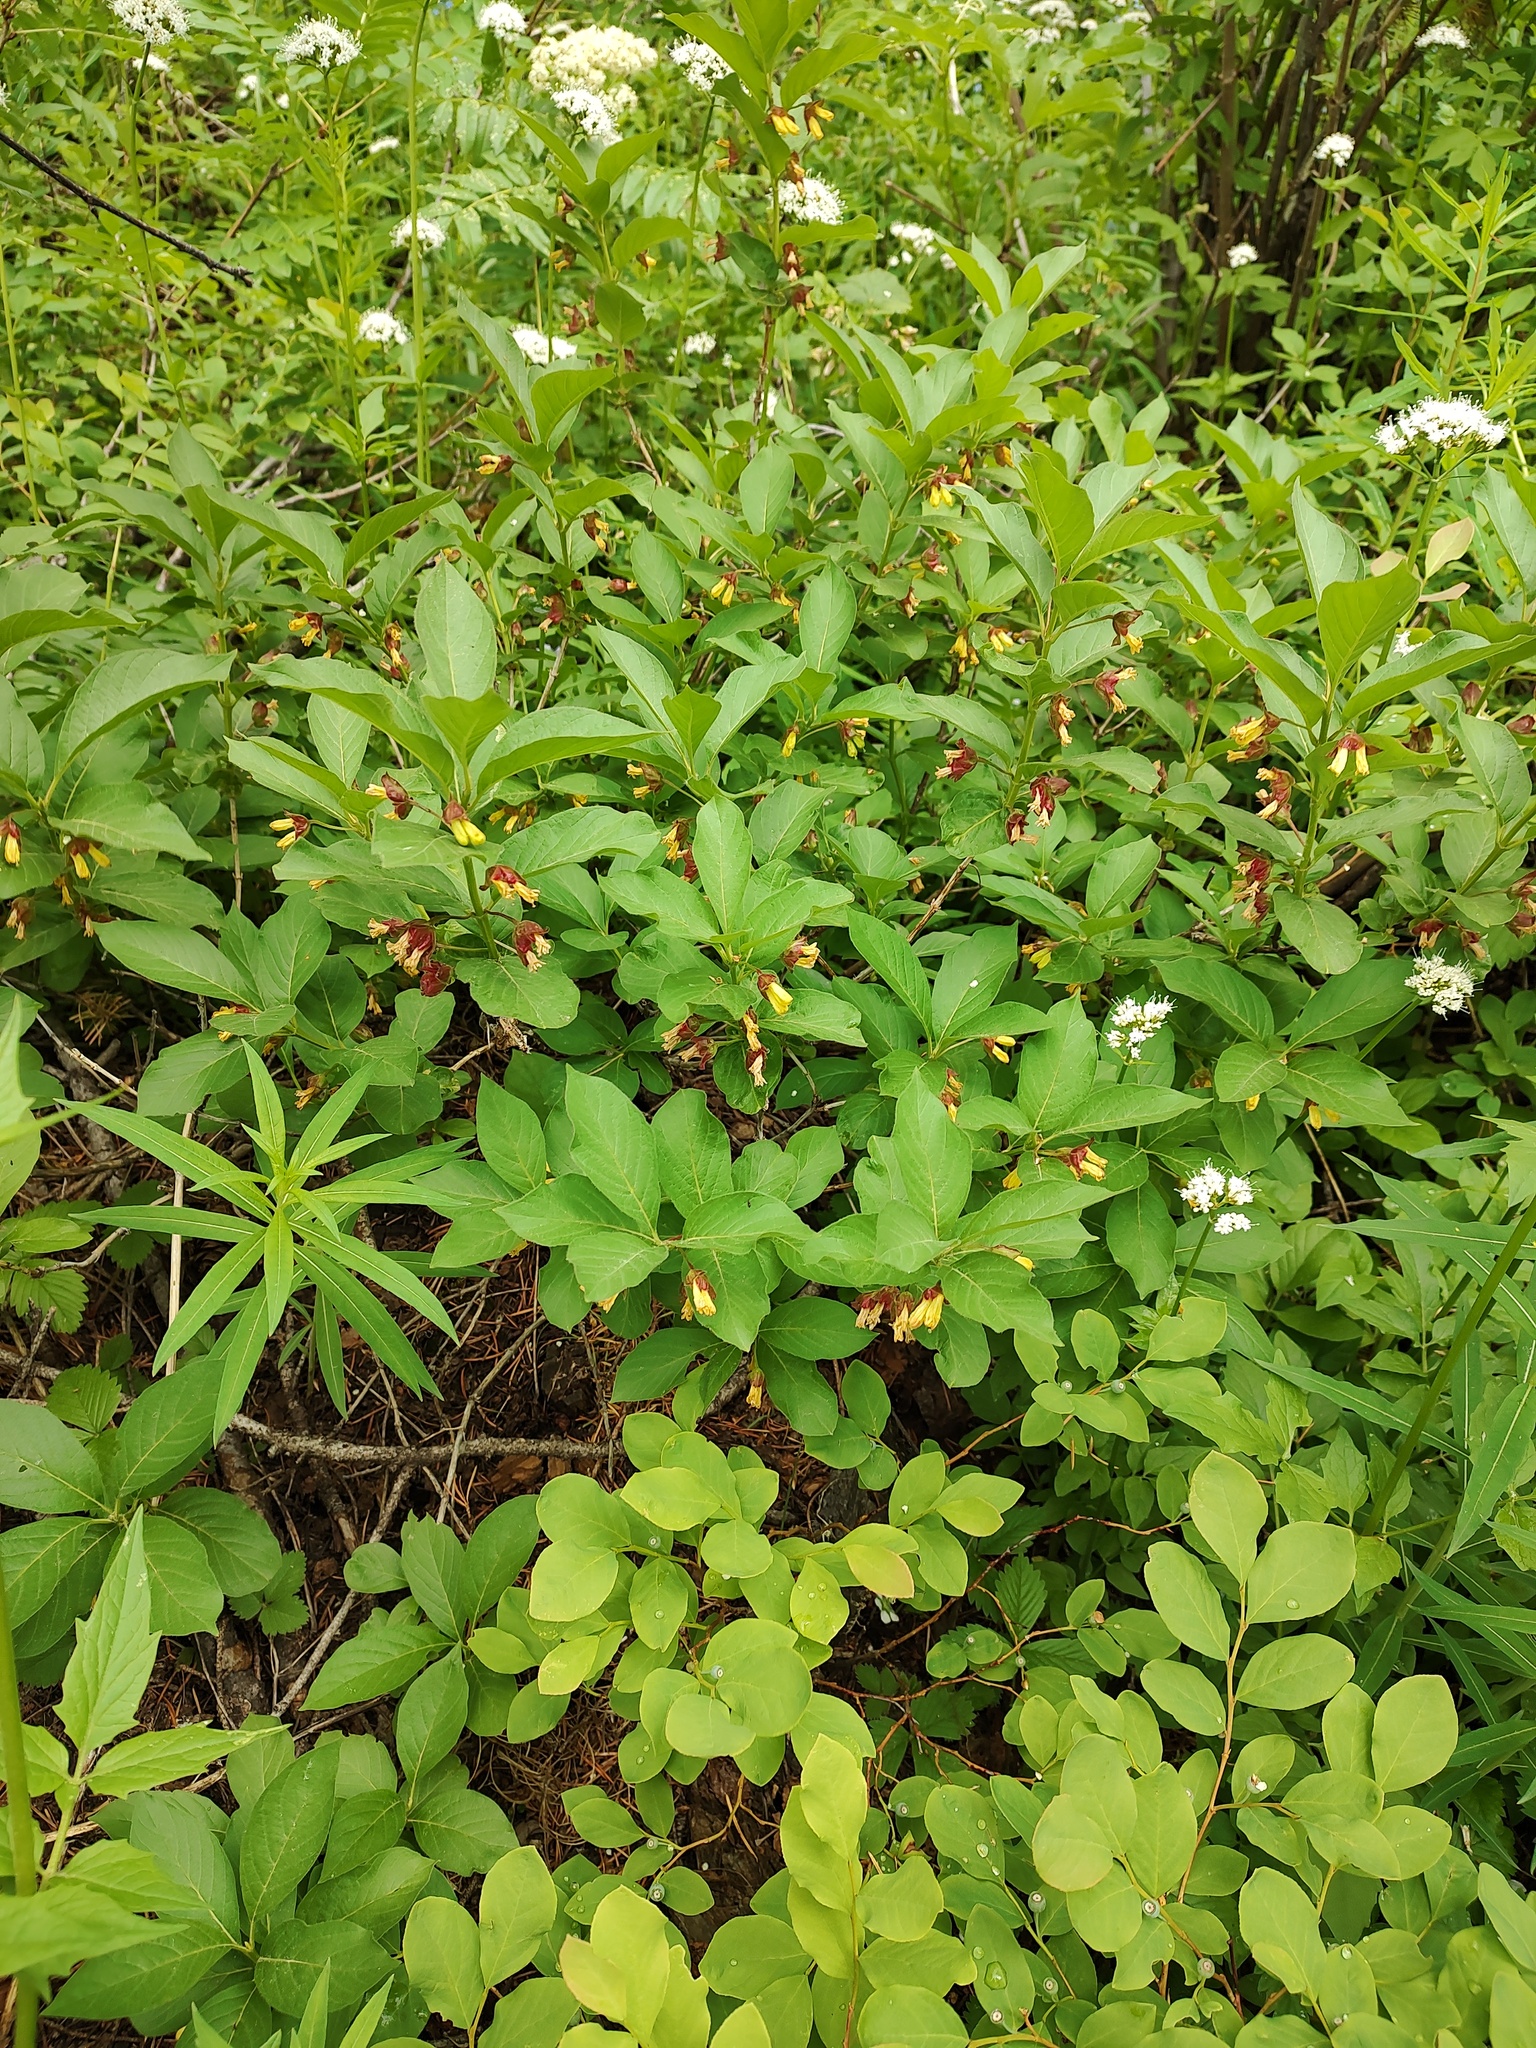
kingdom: Plantae
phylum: Tracheophyta
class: Magnoliopsida
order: Dipsacales
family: Caprifoliaceae
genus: Lonicera
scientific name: Lonicera involucrata
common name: Californian honeysuckle
